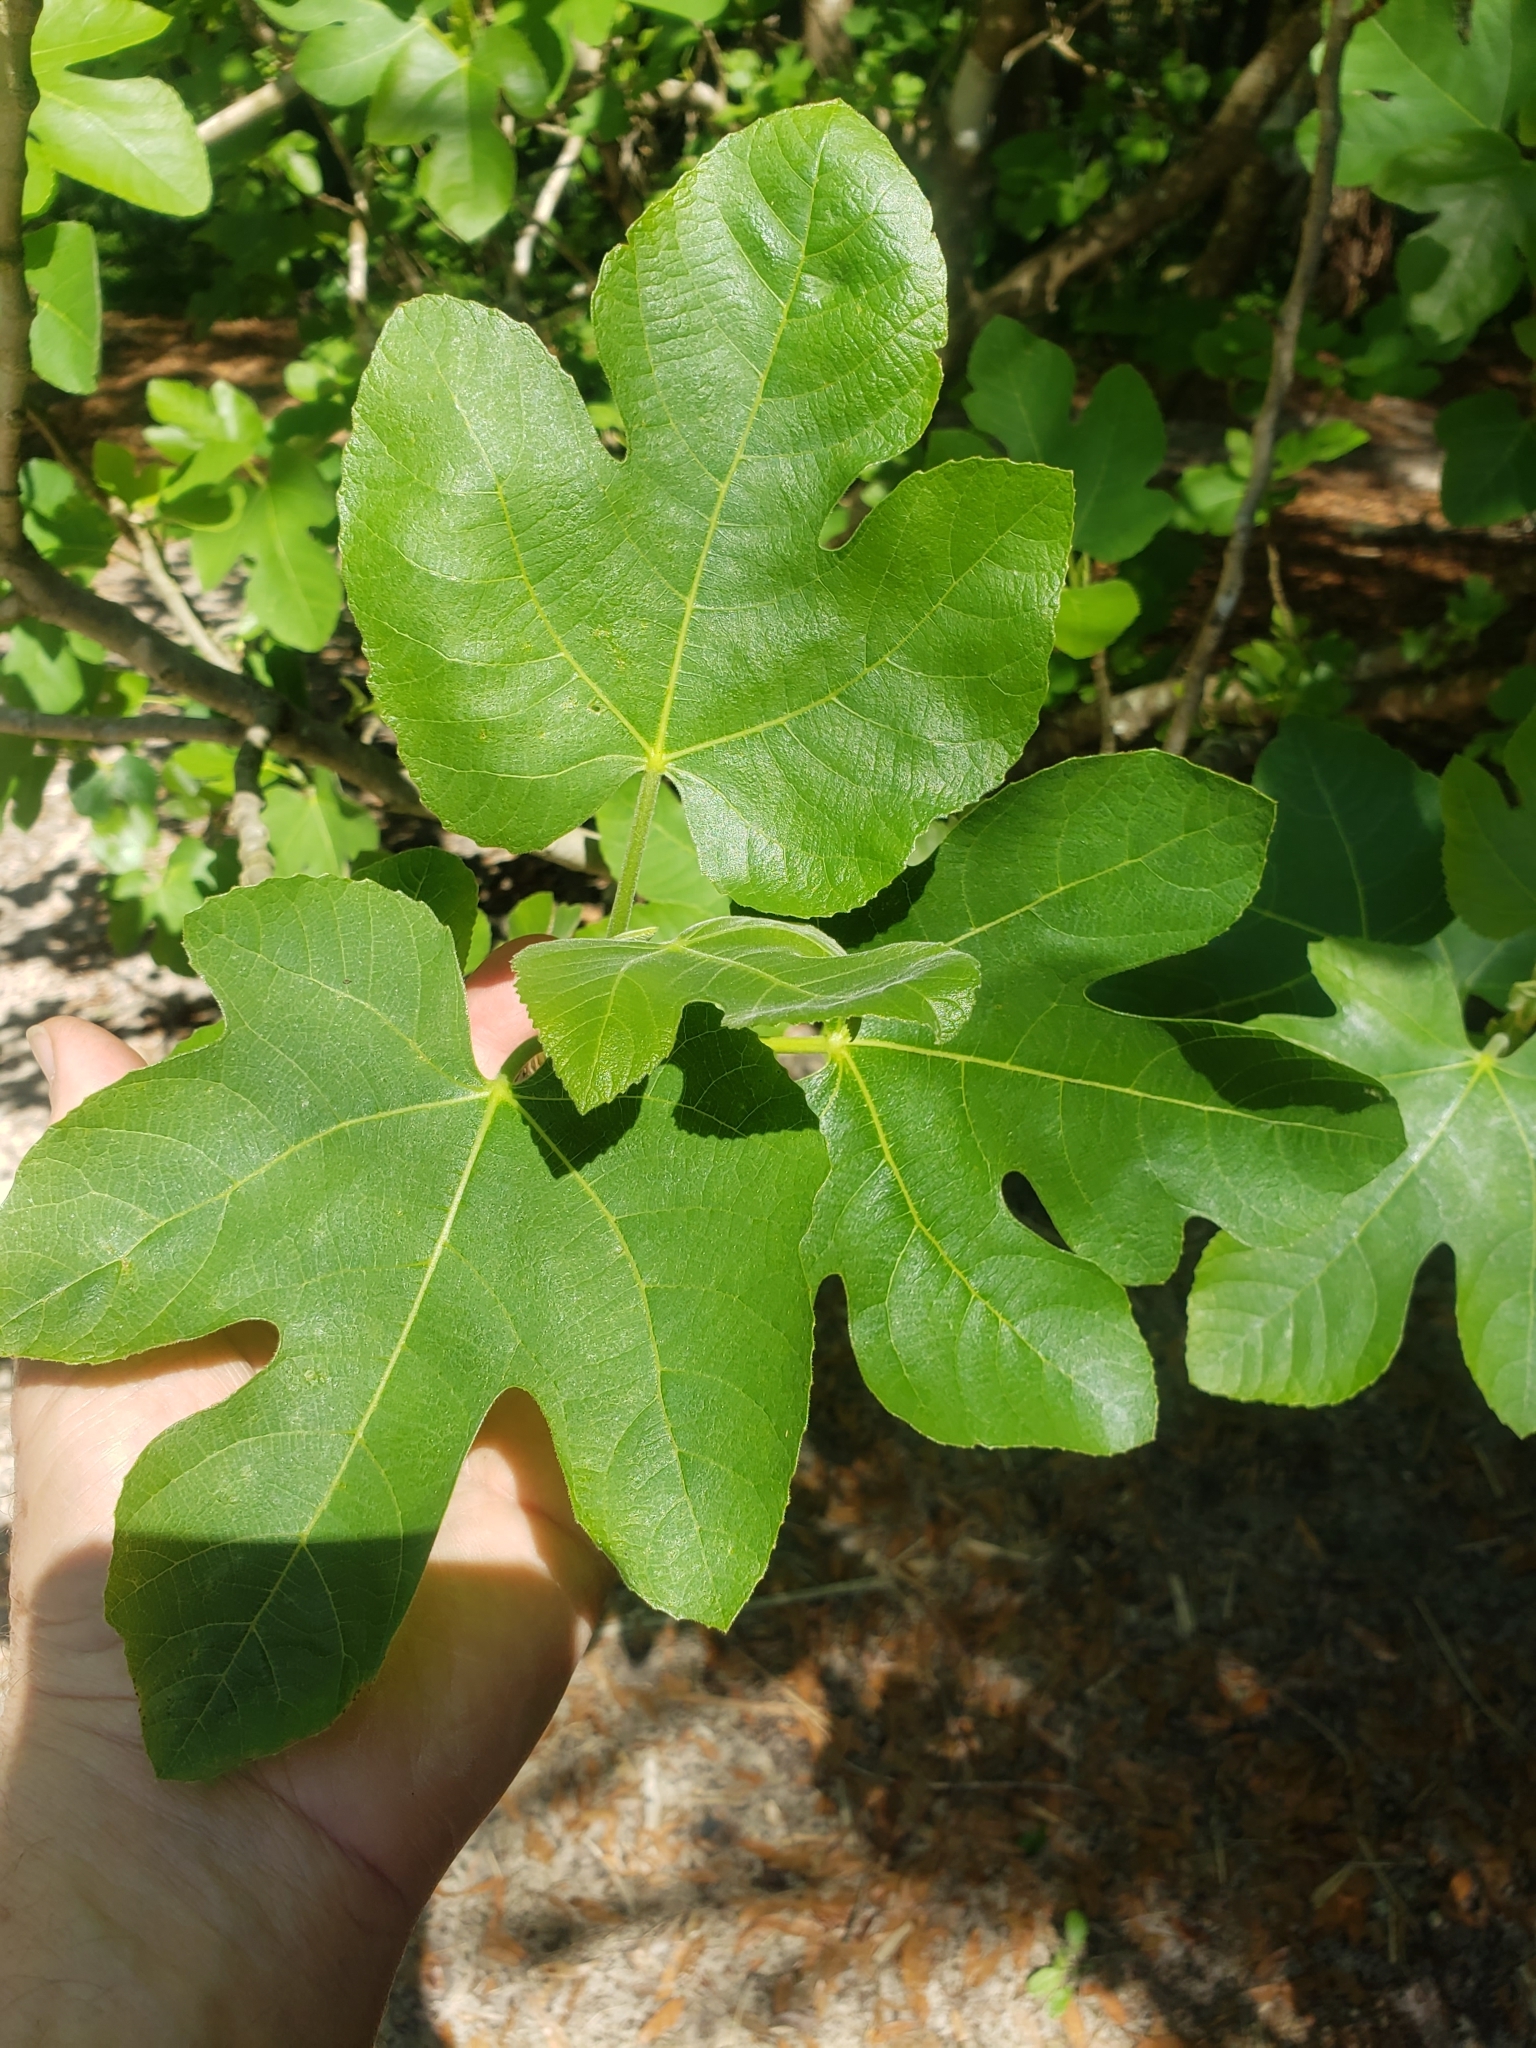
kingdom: Plantae
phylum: Tracheophyta
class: Magnoliopsida
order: Rosales
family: Moraceae
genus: Ficus
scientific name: Ficus carica
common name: Fig
